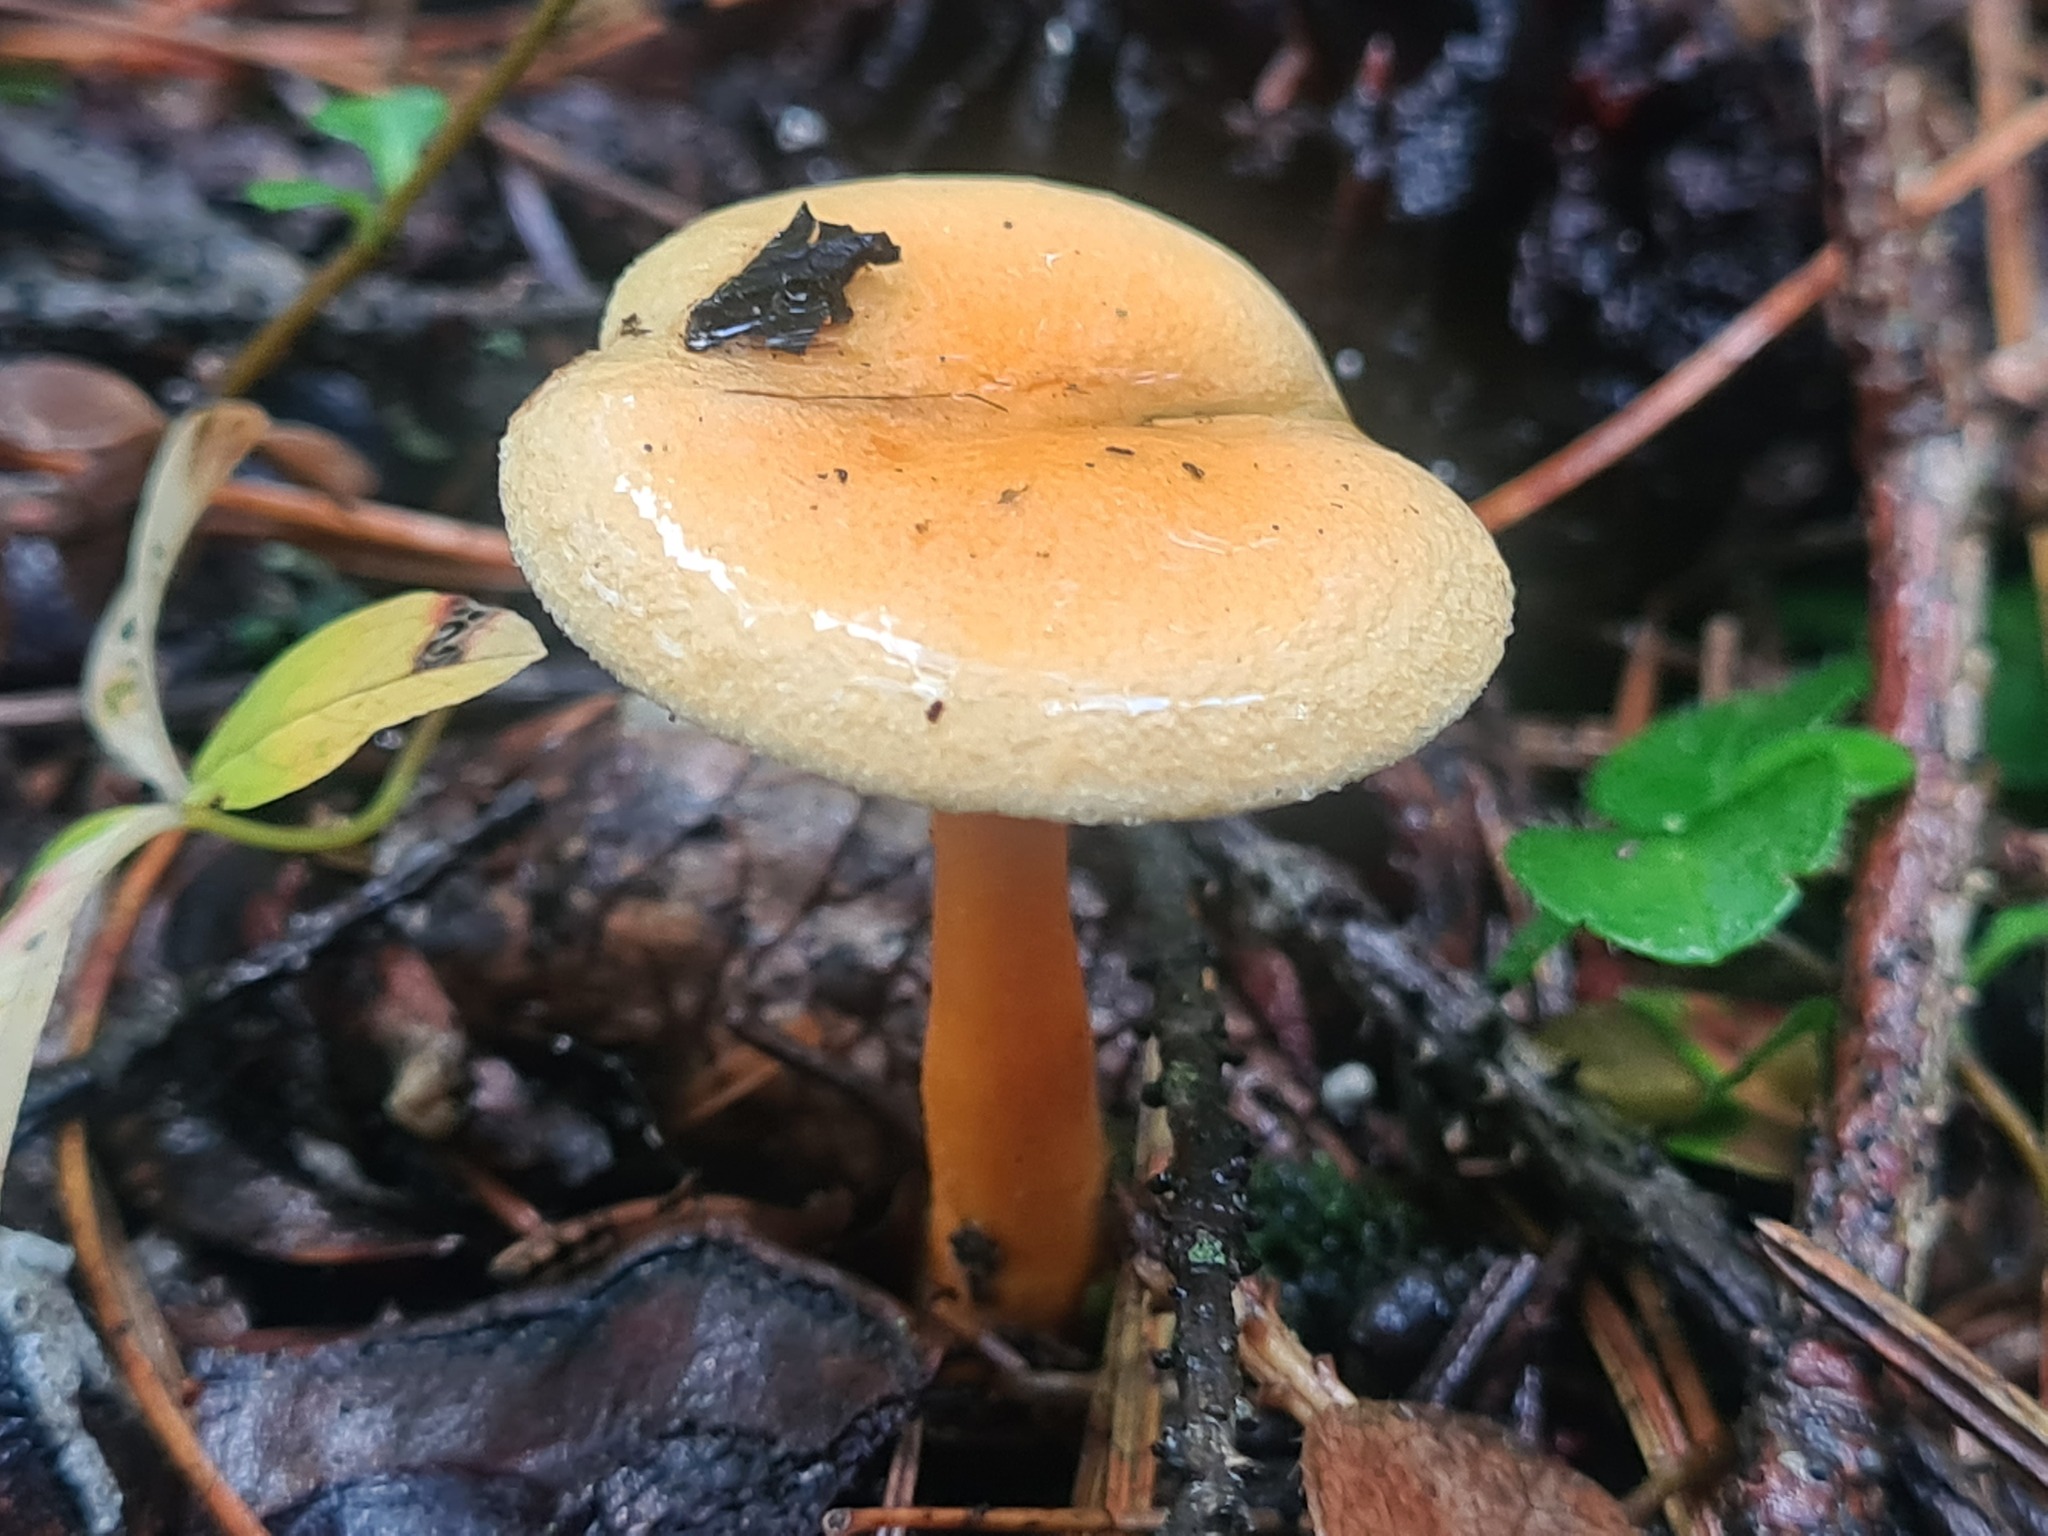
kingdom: Fungi
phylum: Basidiomycota
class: Agaricomycetes
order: Boletales
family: Hygrophoropsidaceae
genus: Hygrophoropsis
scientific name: Hygrophoropsis aurantiaca
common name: False chanterelle
